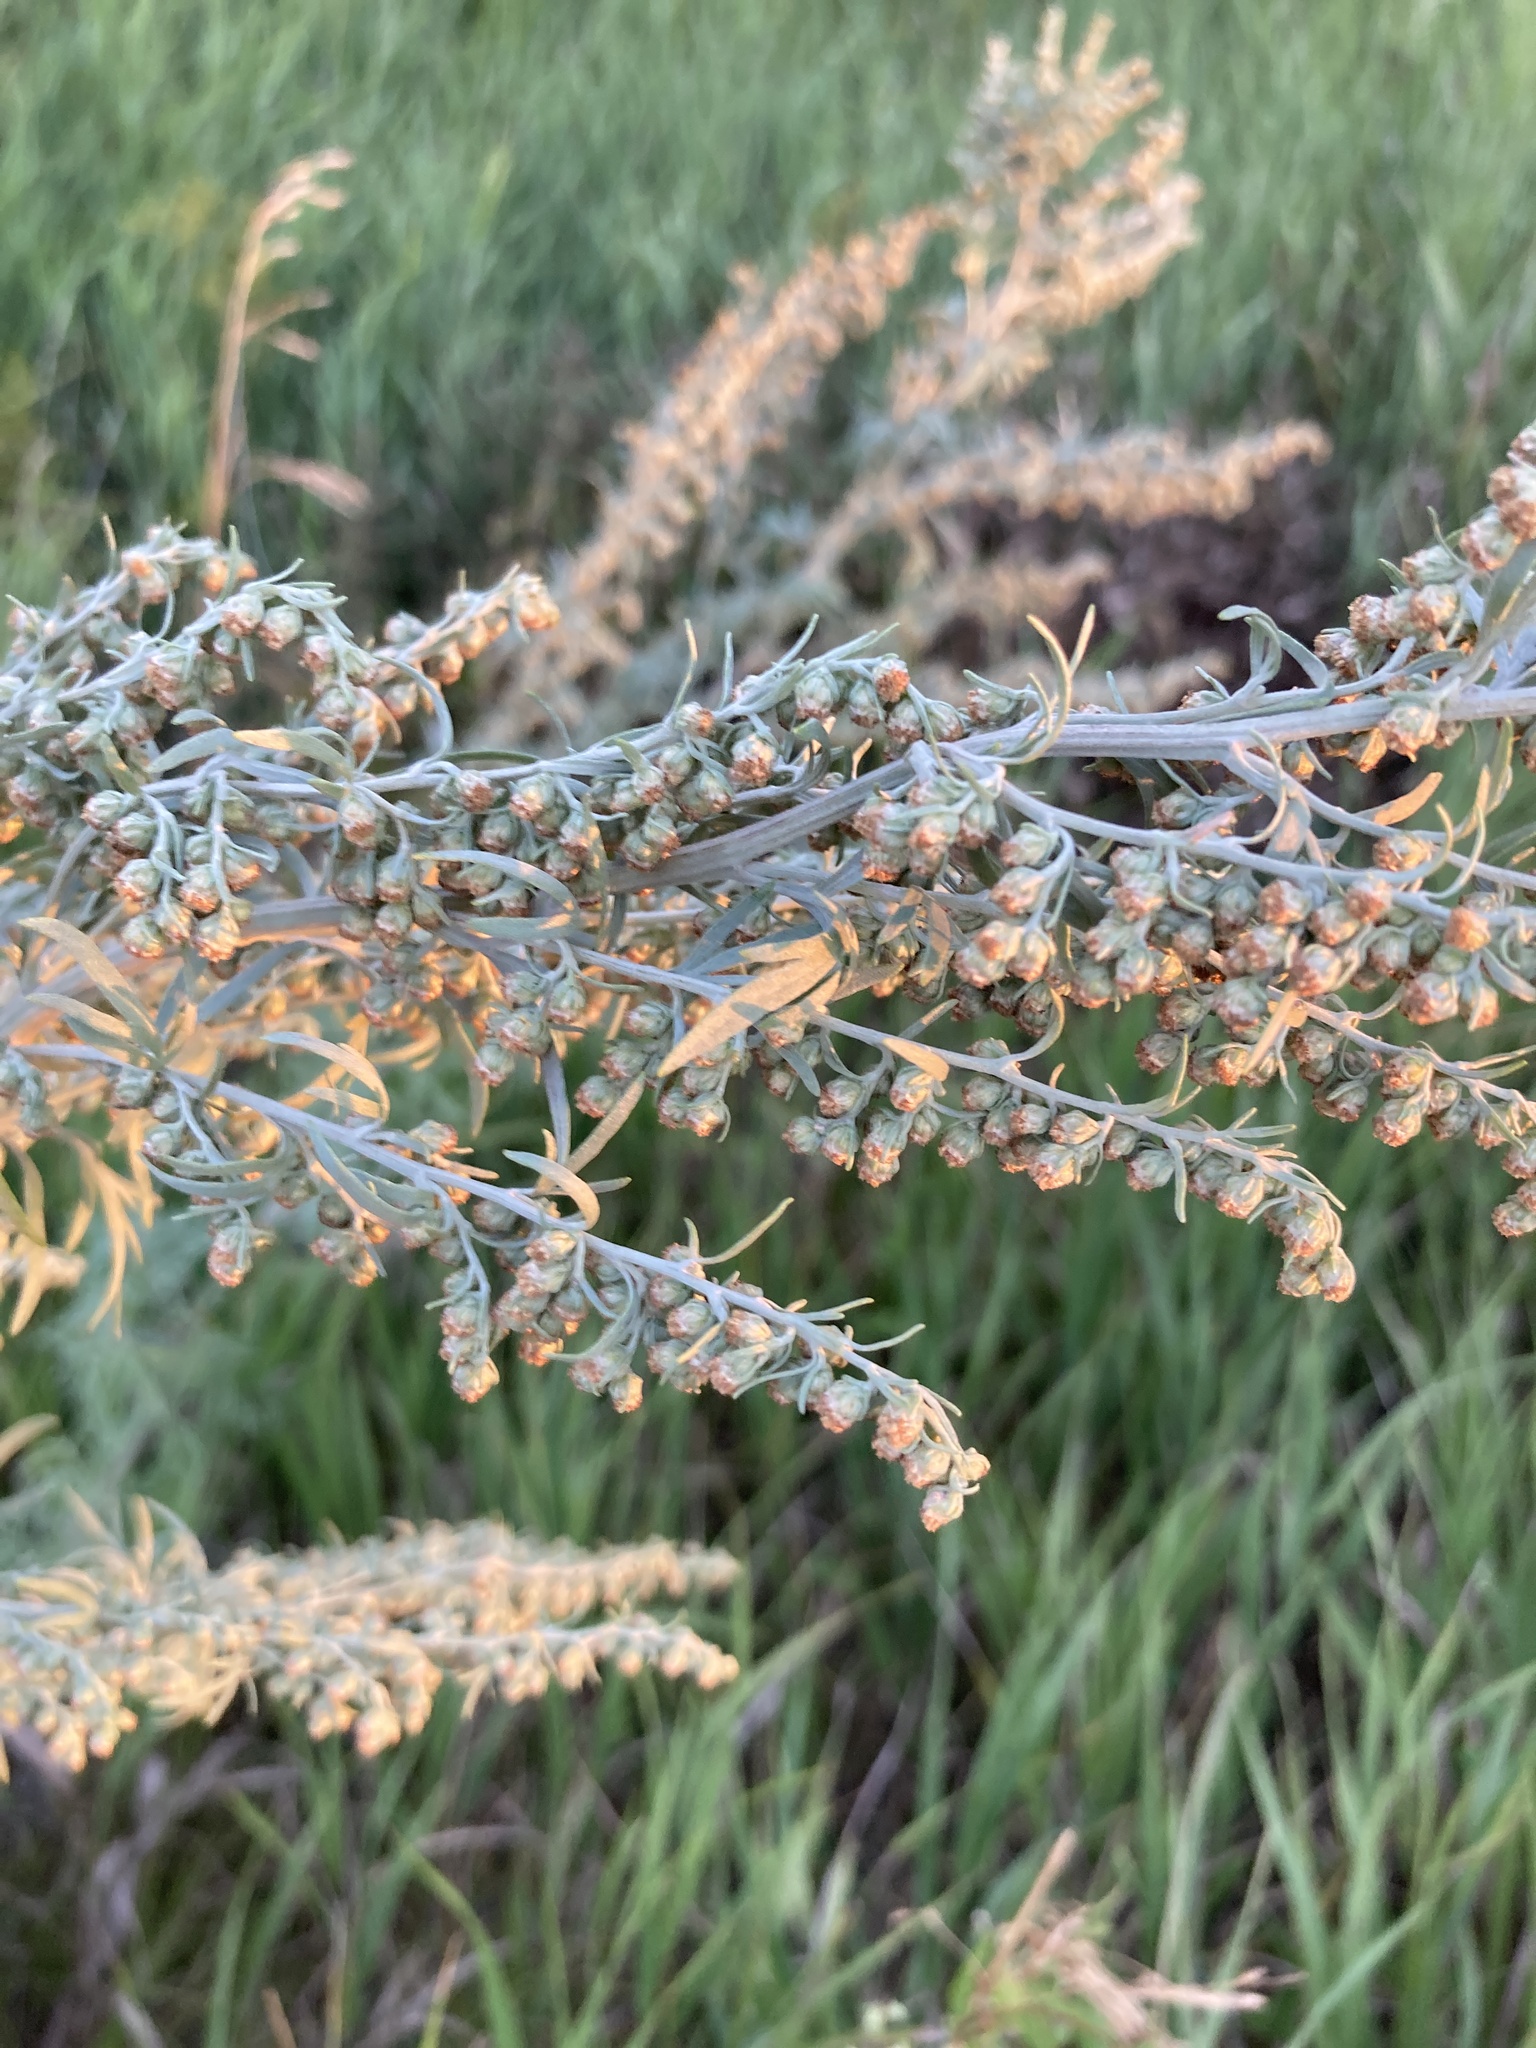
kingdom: Plantae
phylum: Tracheophyta
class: Magnoliopsida
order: Asterales
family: Asteraceae
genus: Artemisia
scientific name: Artemisia absinthium
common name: Wormwood
